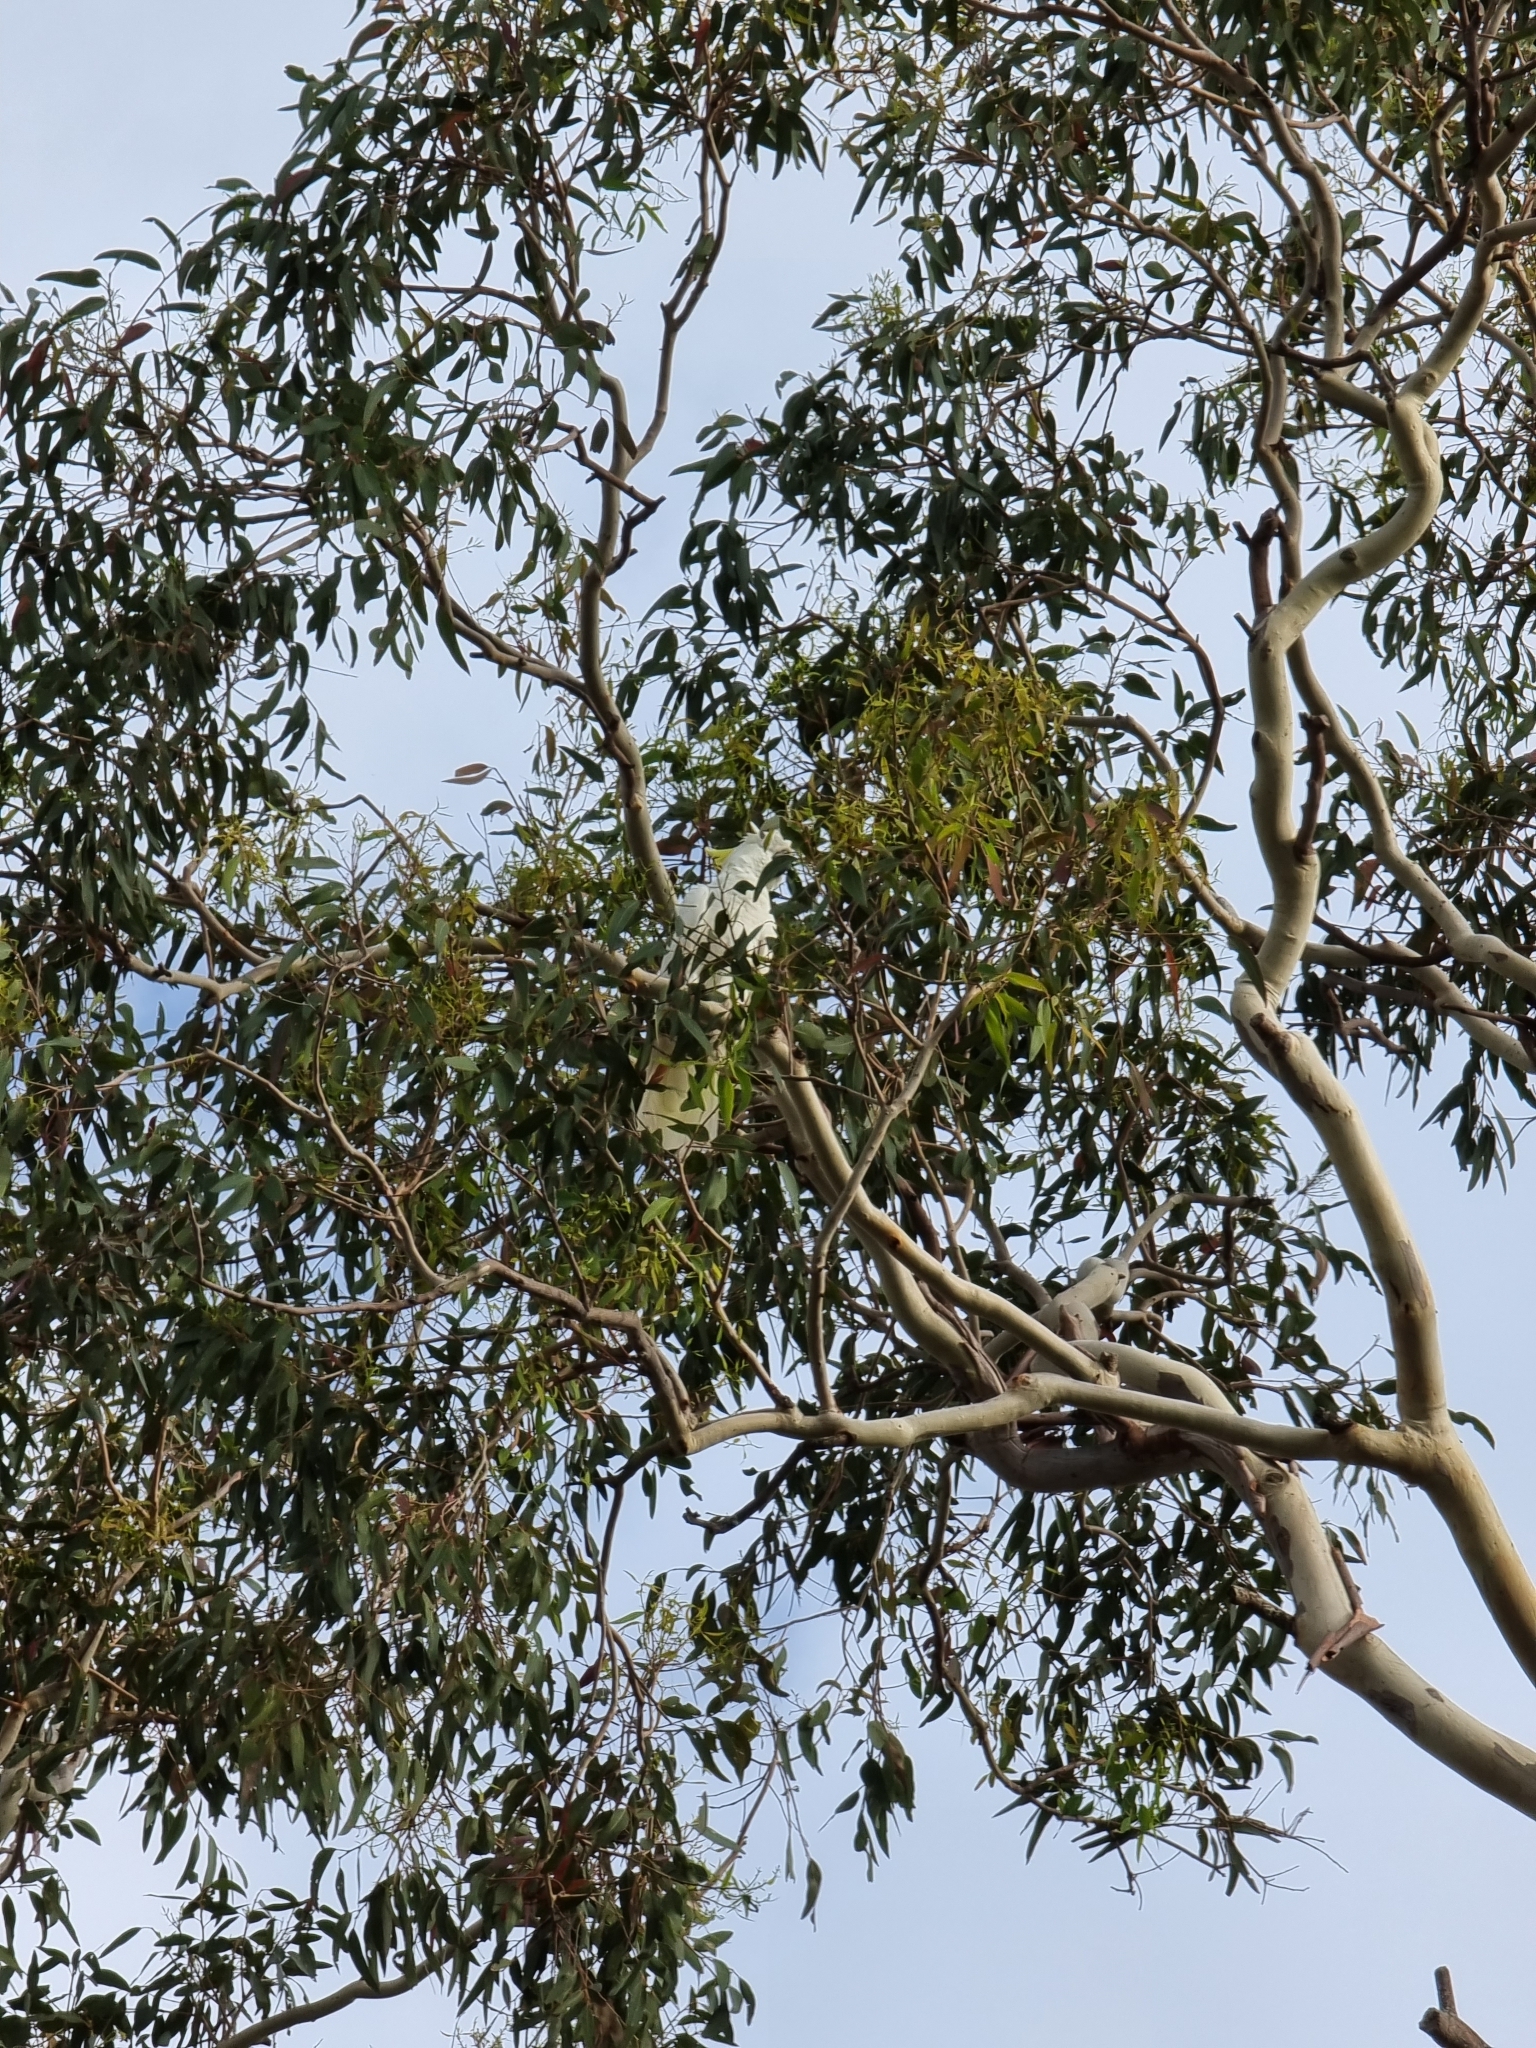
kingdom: Animalia
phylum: Chordata
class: Aves
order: Psittaciformes
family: Psittacidae
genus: Cacatua
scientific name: Cacatua galerita
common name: Sulphur-crested cockatoo
